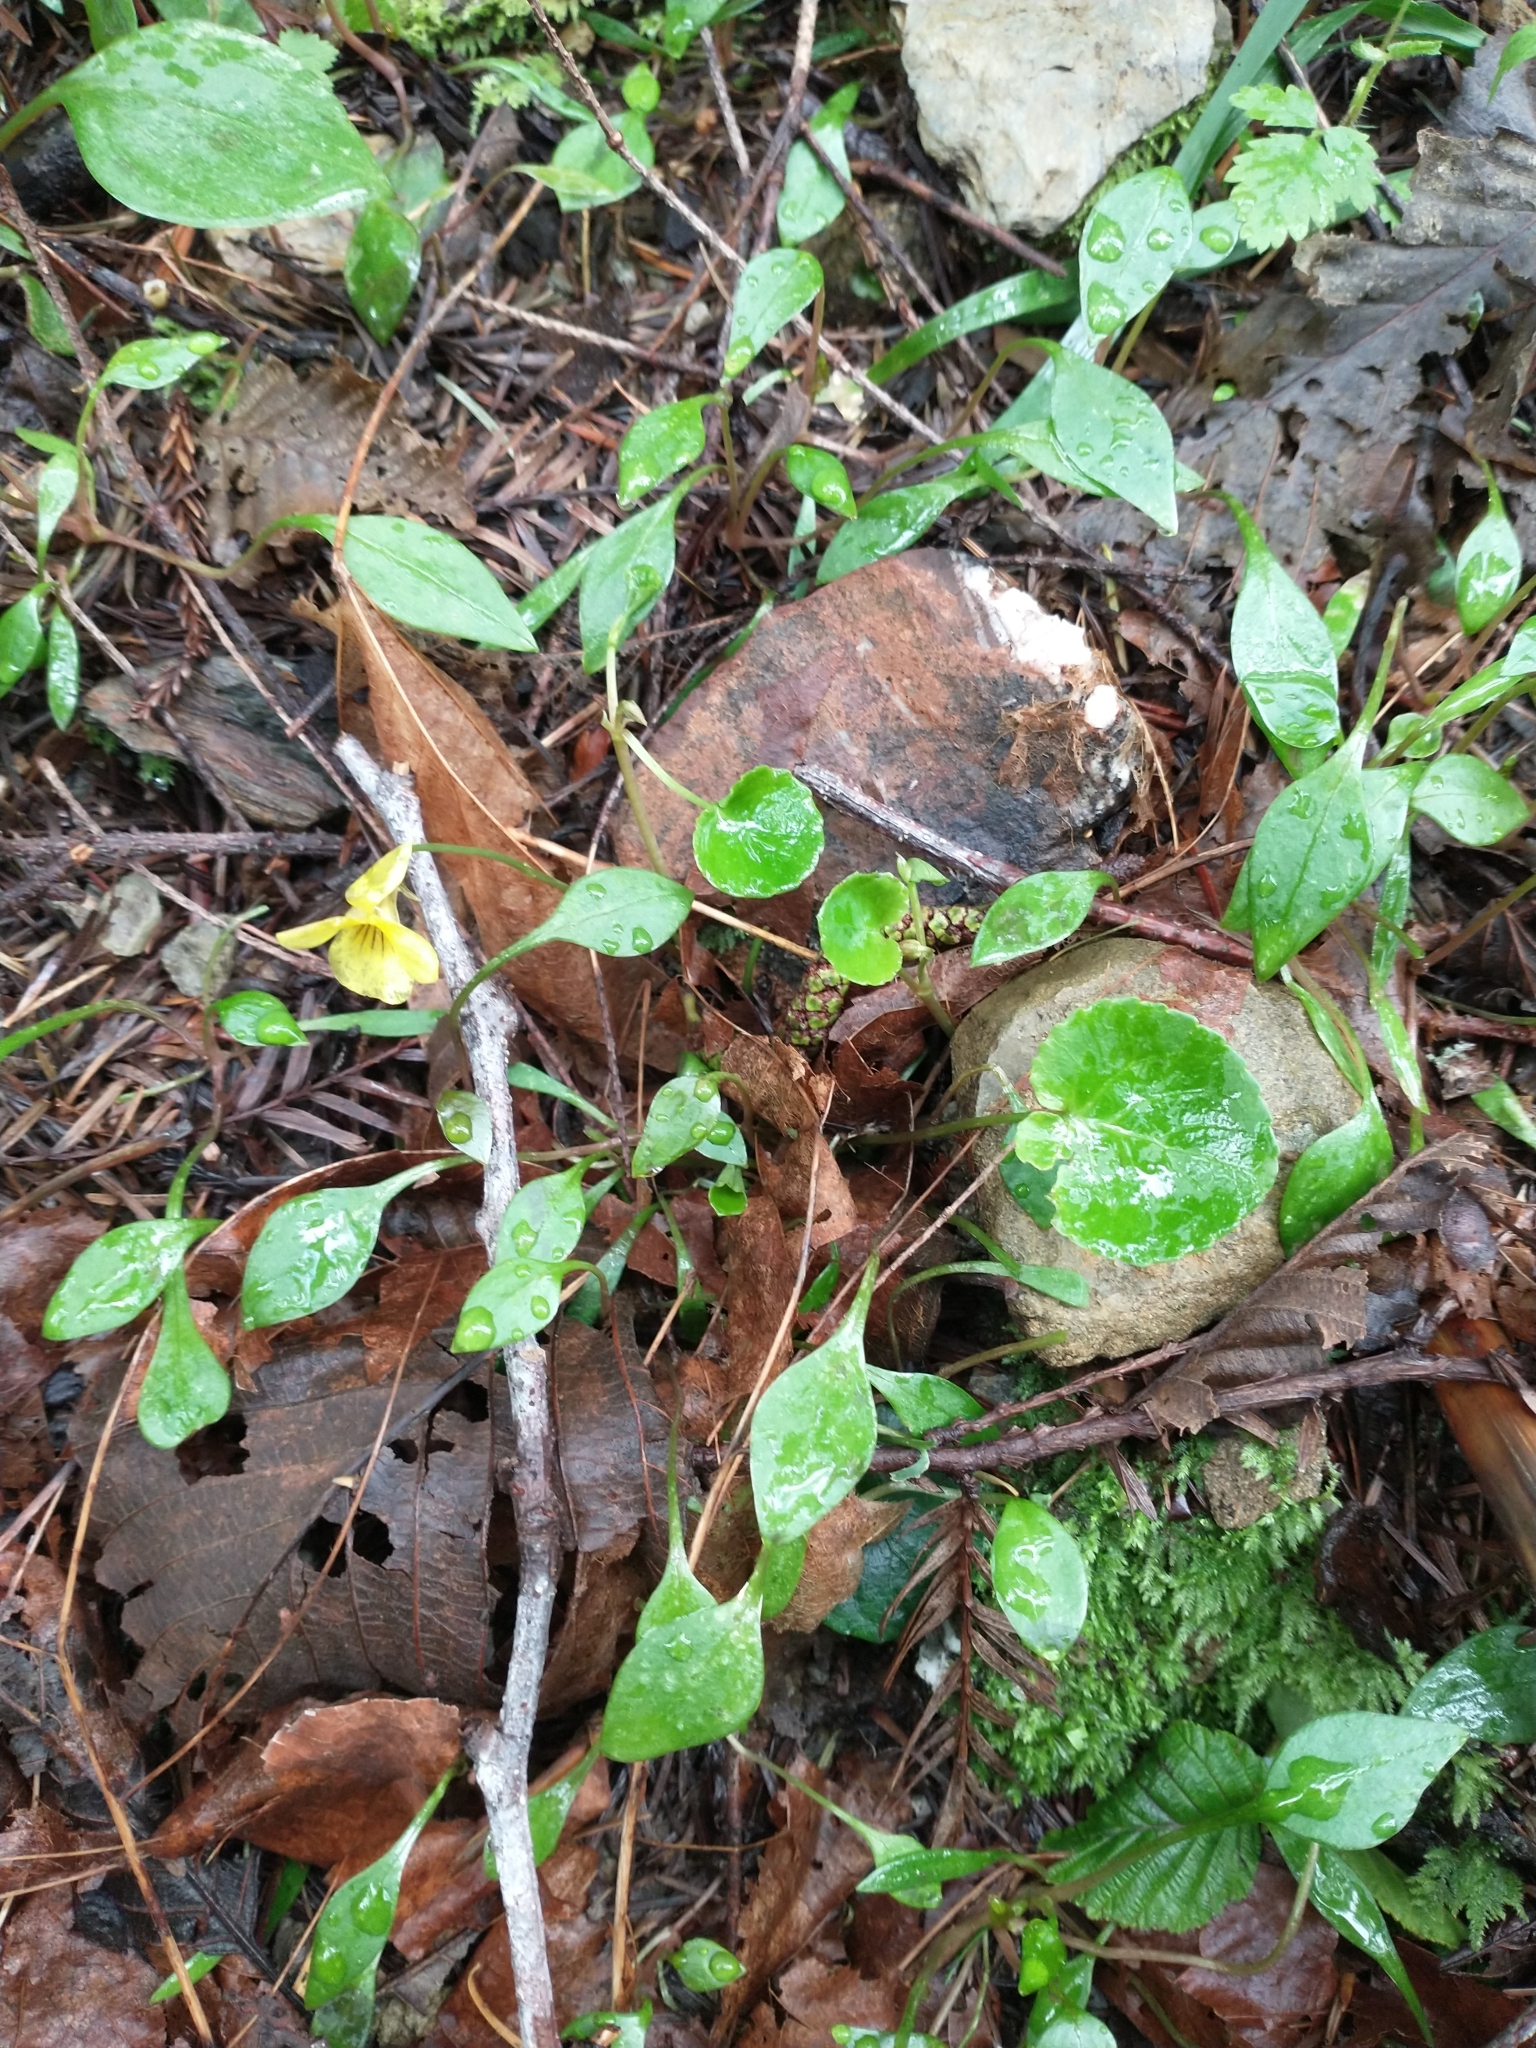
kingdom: Plantae
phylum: Tracheophyta
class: Magnoliopsida
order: Malpighiales
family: Violaceae
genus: Viola
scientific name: Viola sempervirens
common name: Evergreen violet
